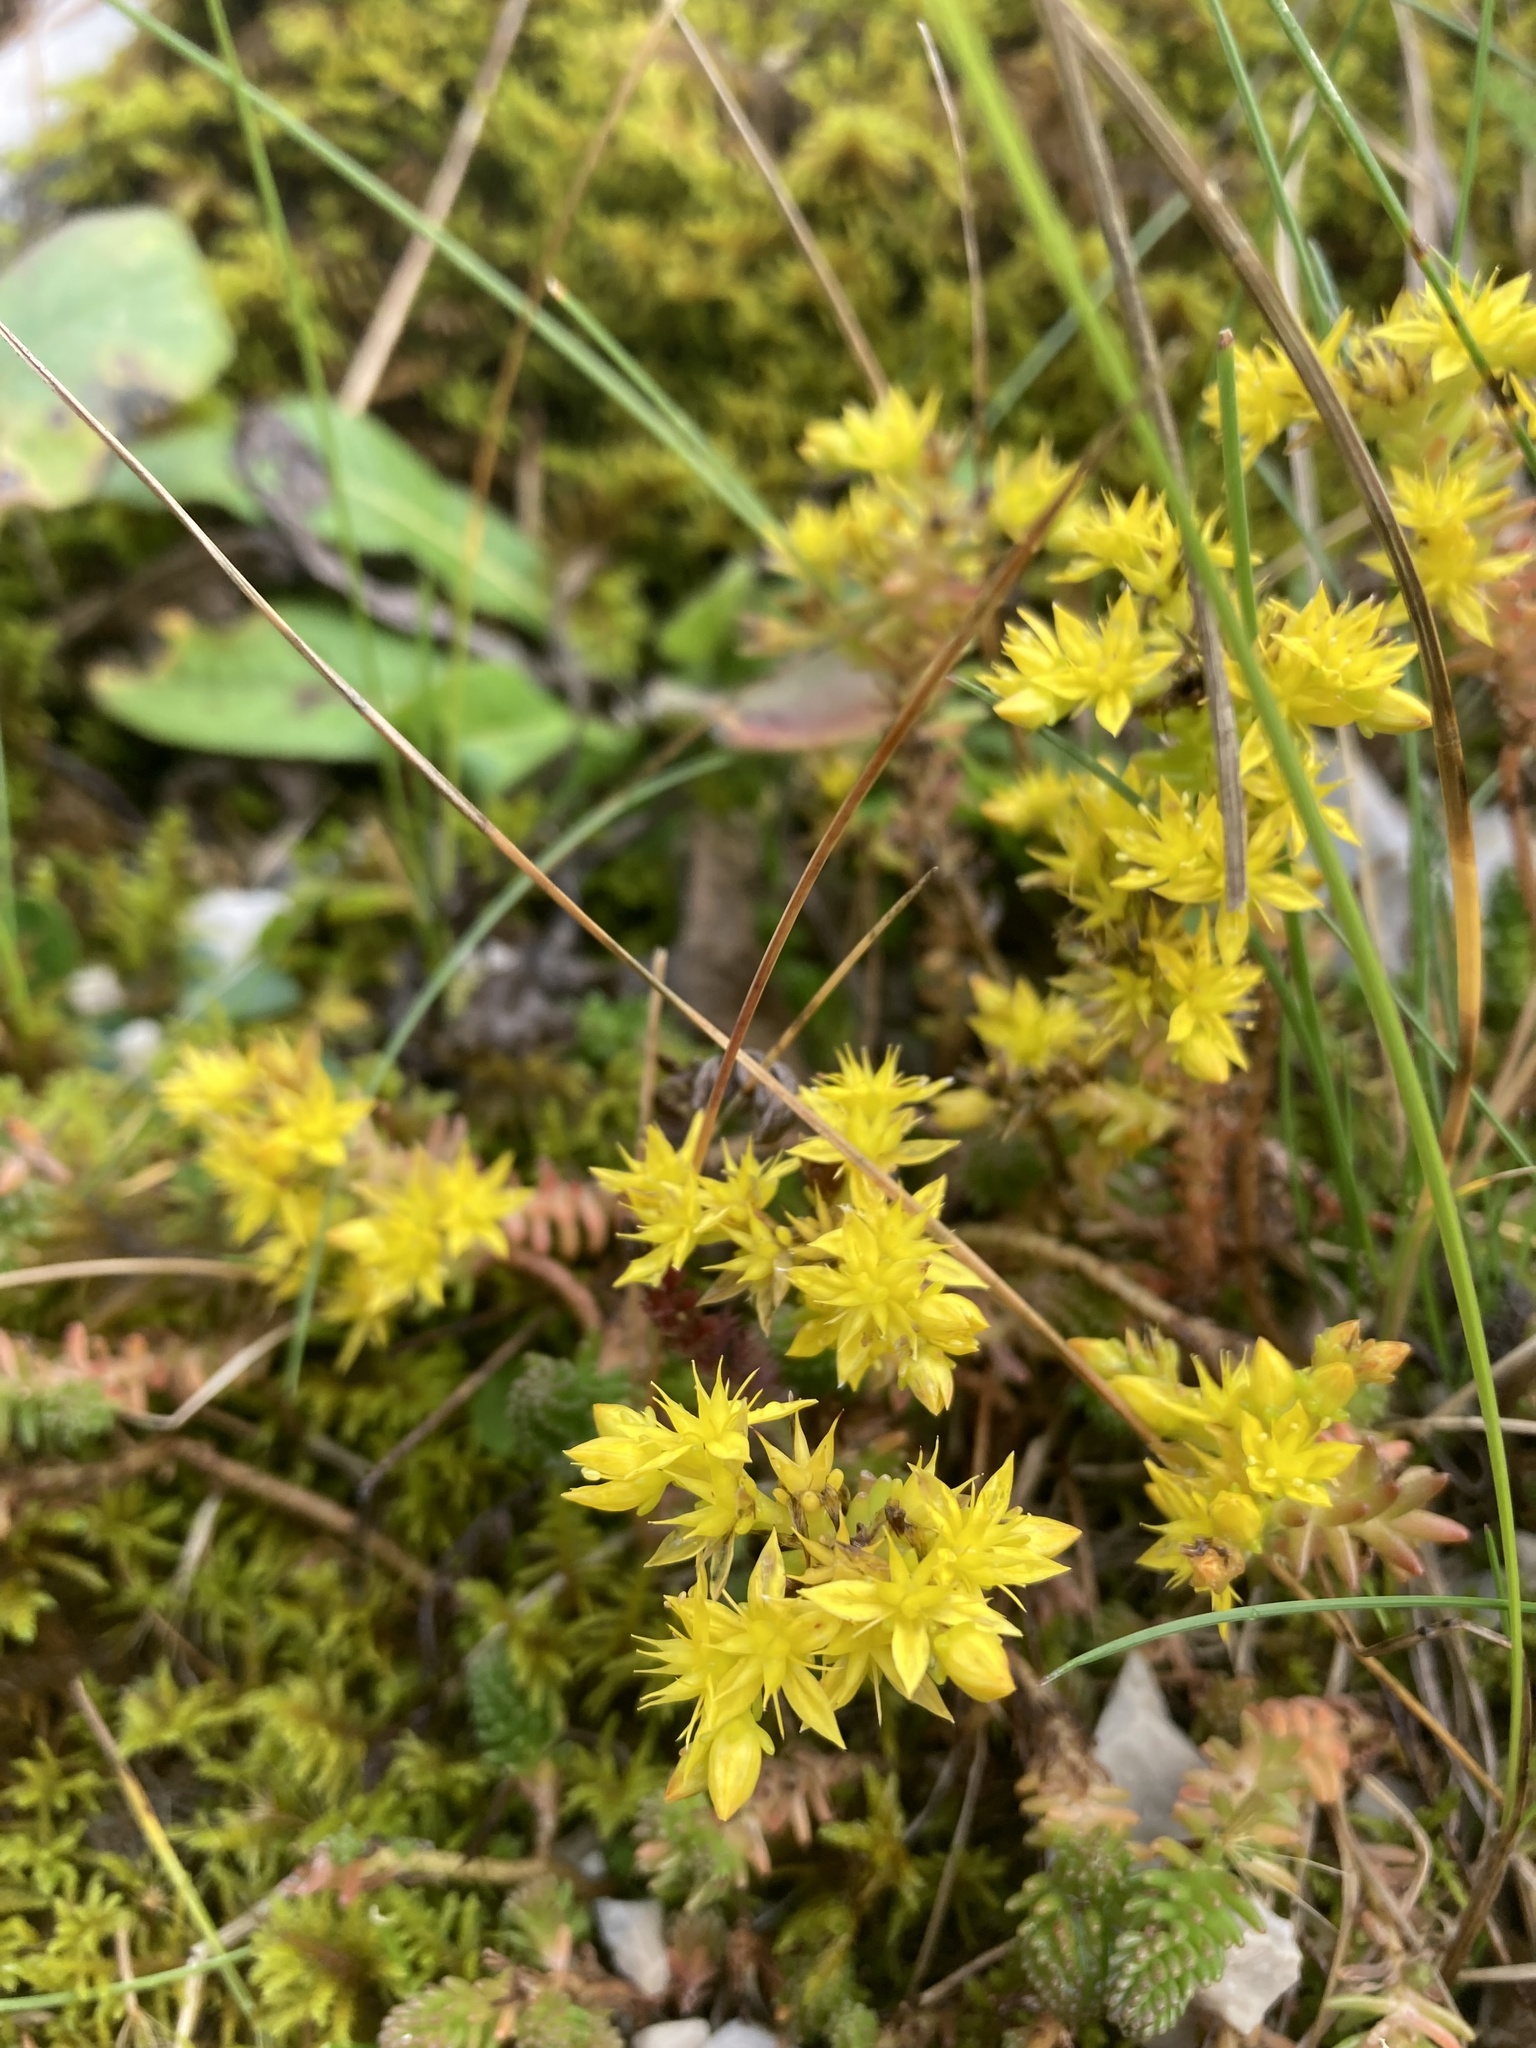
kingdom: Plantae
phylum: Tracheophyta
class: Magnoliopsida
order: Saxifragales
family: Crassulaceae
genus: Sedum
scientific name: Sedum sexangulare
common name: Tasteless stonecrop
